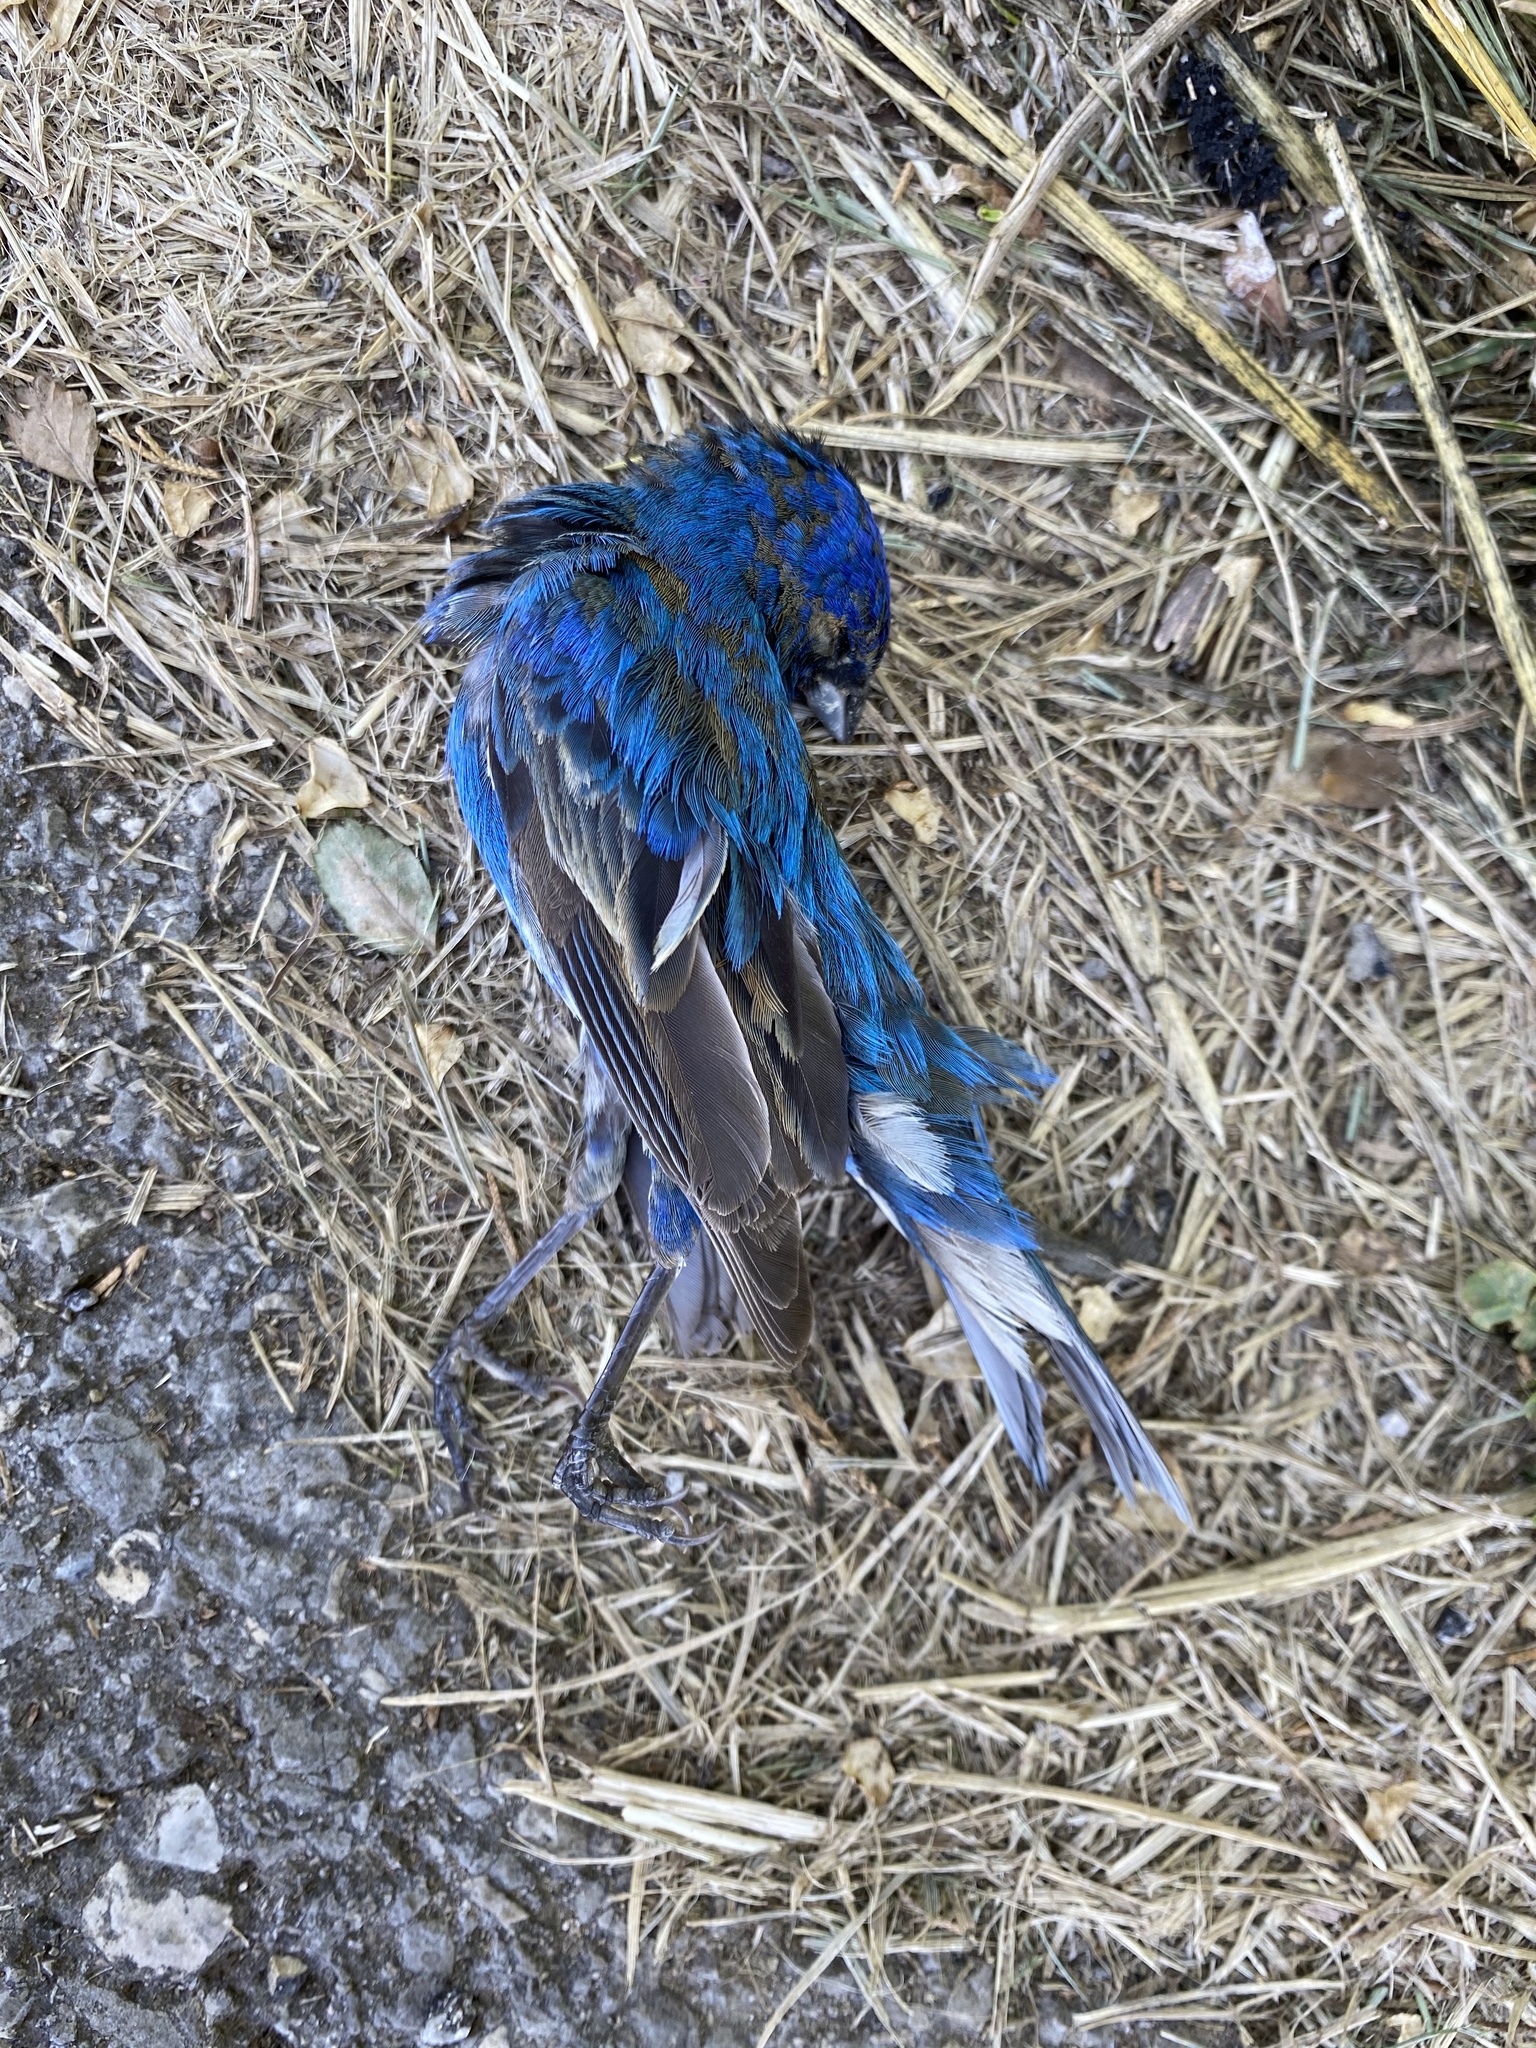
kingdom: Animalia
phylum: Chordata
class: Aves
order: Passeriformes
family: Cardinalidae
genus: Passerina
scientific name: Passerina cyanea
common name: Indigo bunting
